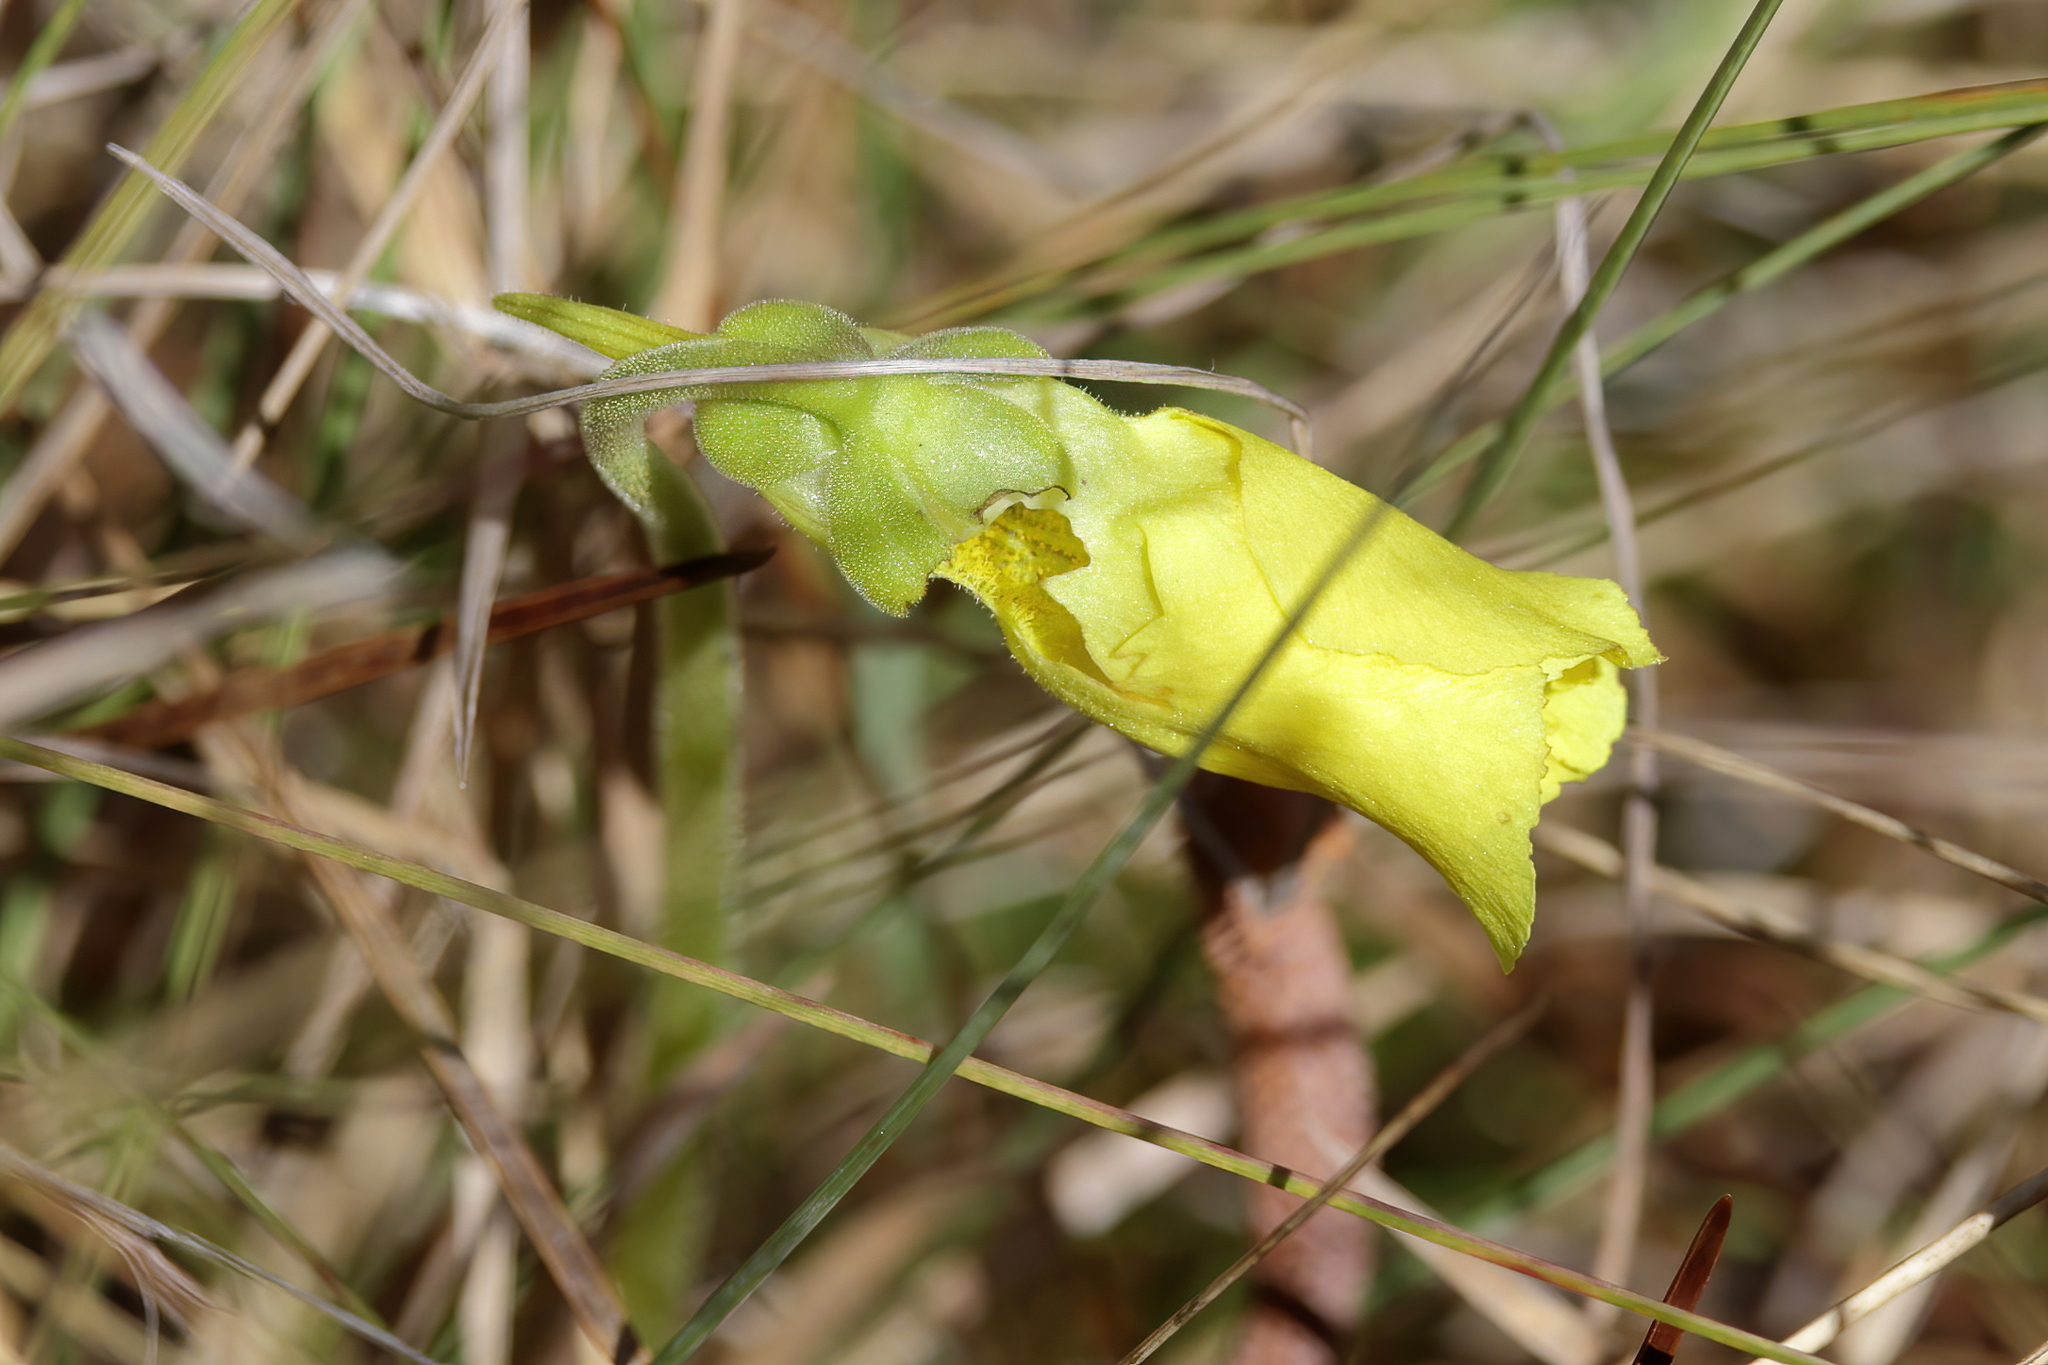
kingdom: Plantae
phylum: Tracheophyta
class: Magnoliopsida
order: Lamiales
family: Lentibulariaceae
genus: Pinguicula
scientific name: Pinguicula lutea
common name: Yellow butterwort
